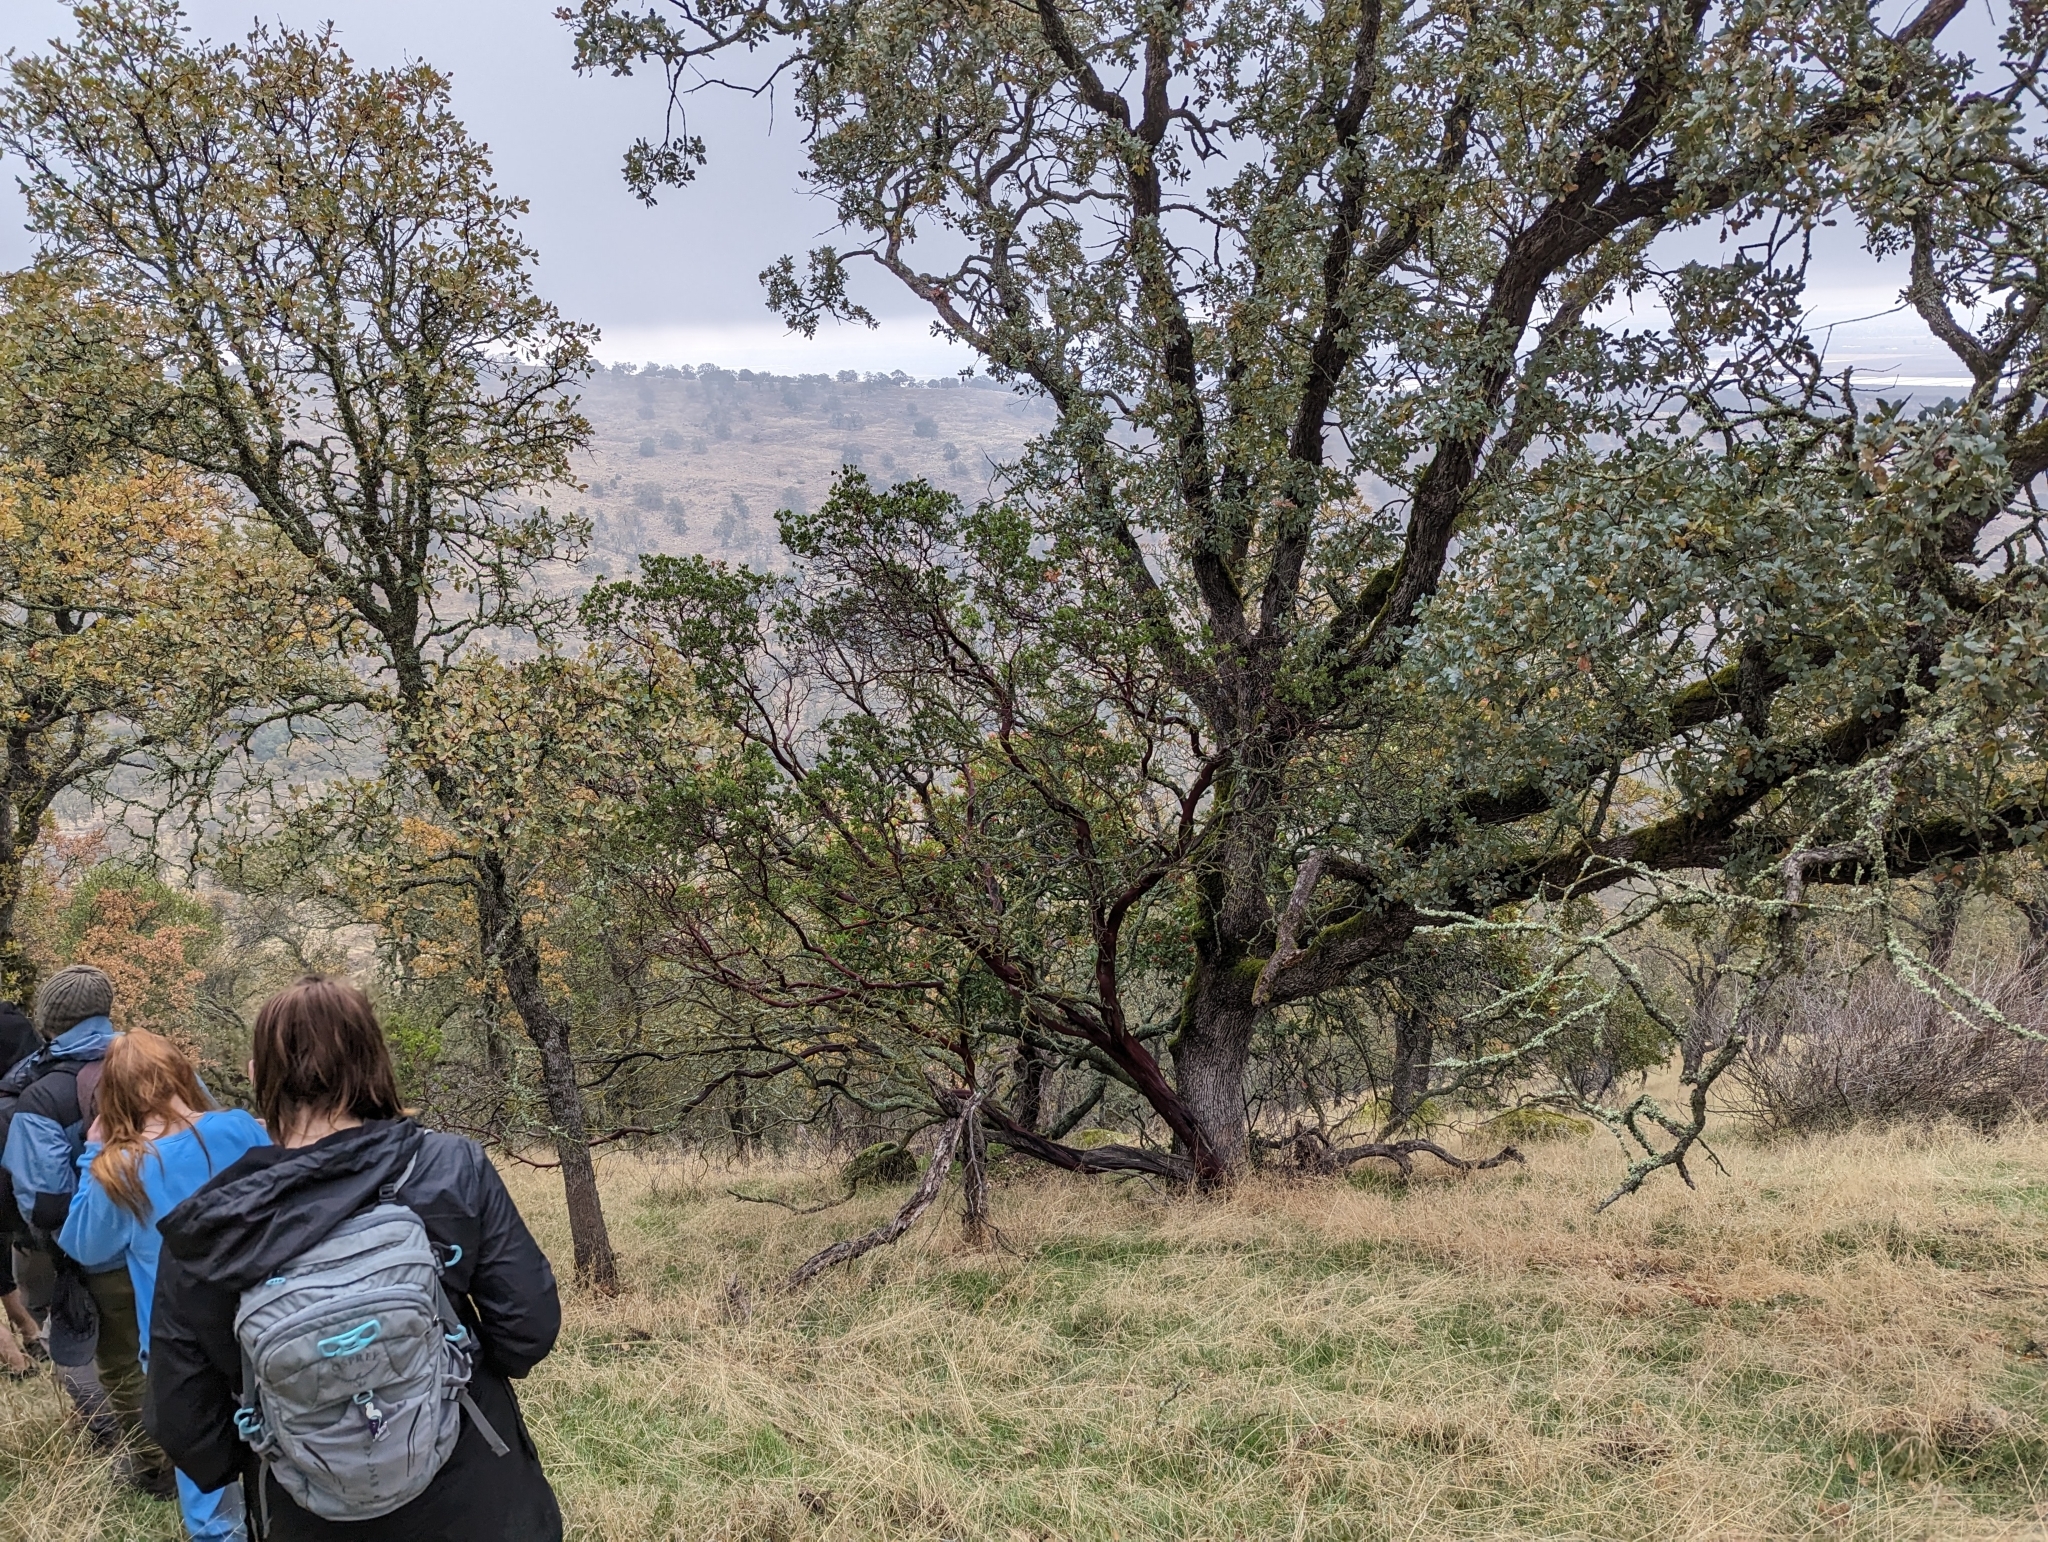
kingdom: Plantae
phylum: Tracheophyta
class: Magnoliopsida
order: Ericales
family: Ericaceae
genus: Arctostaphylos
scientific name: Arctostaphylos manzanita
